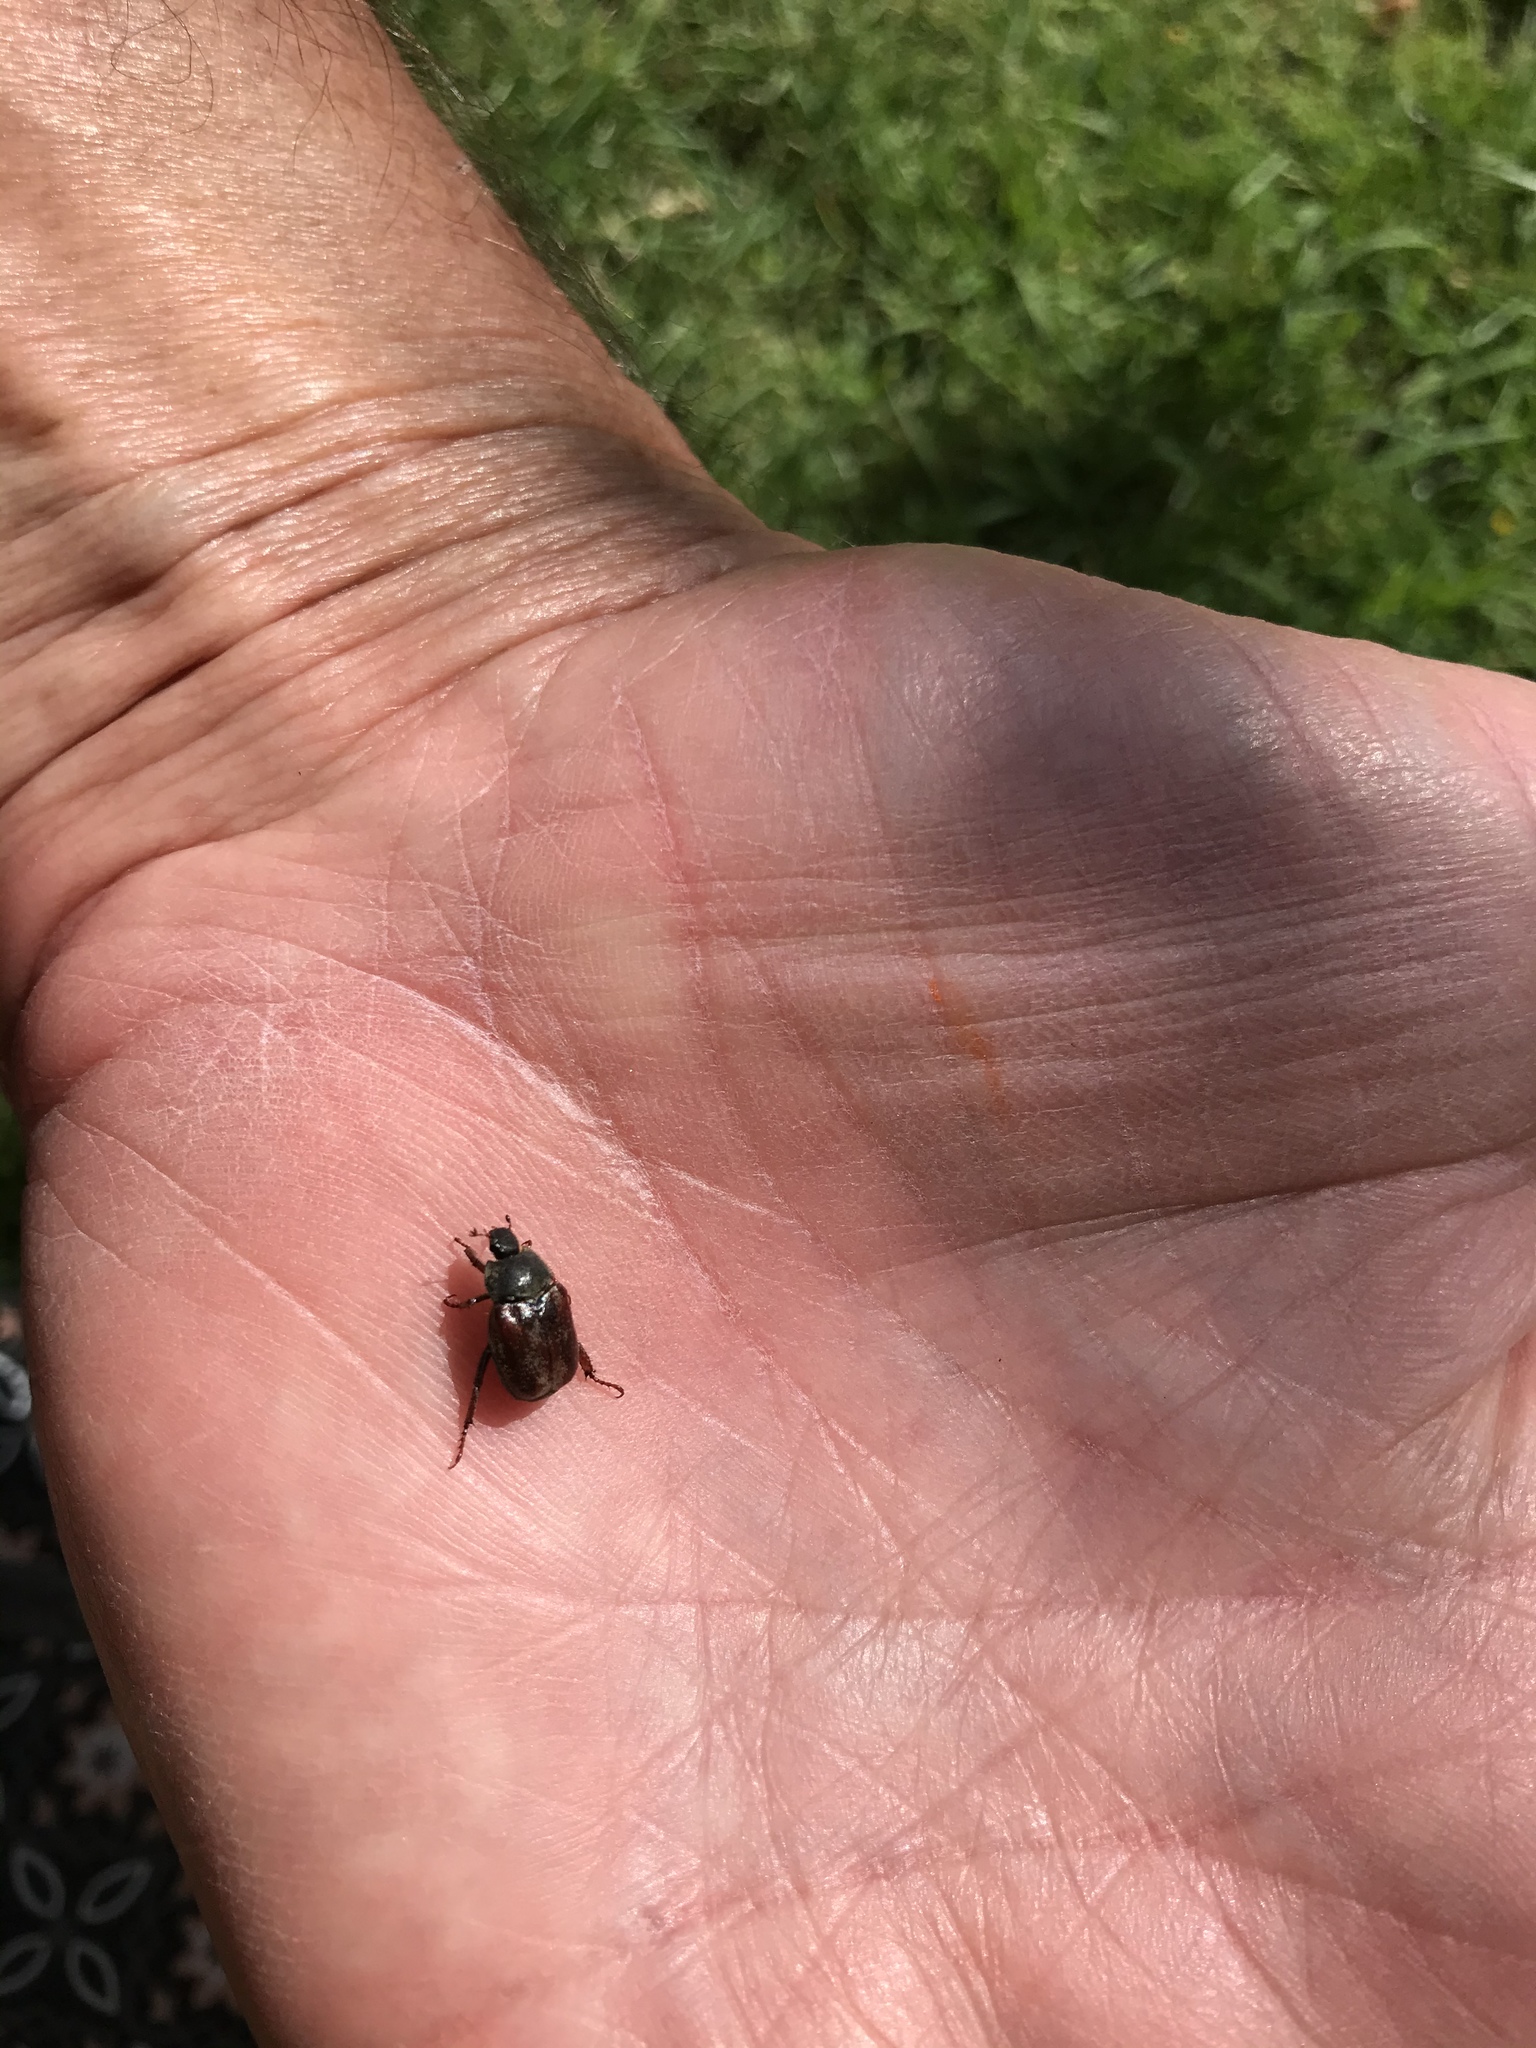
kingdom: Animalia
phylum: Arthropoda
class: Insecta
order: Coleoptera
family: Scarabaeidae
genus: Hoplia
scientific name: Hoplia philanthus
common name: Welsh chafer
